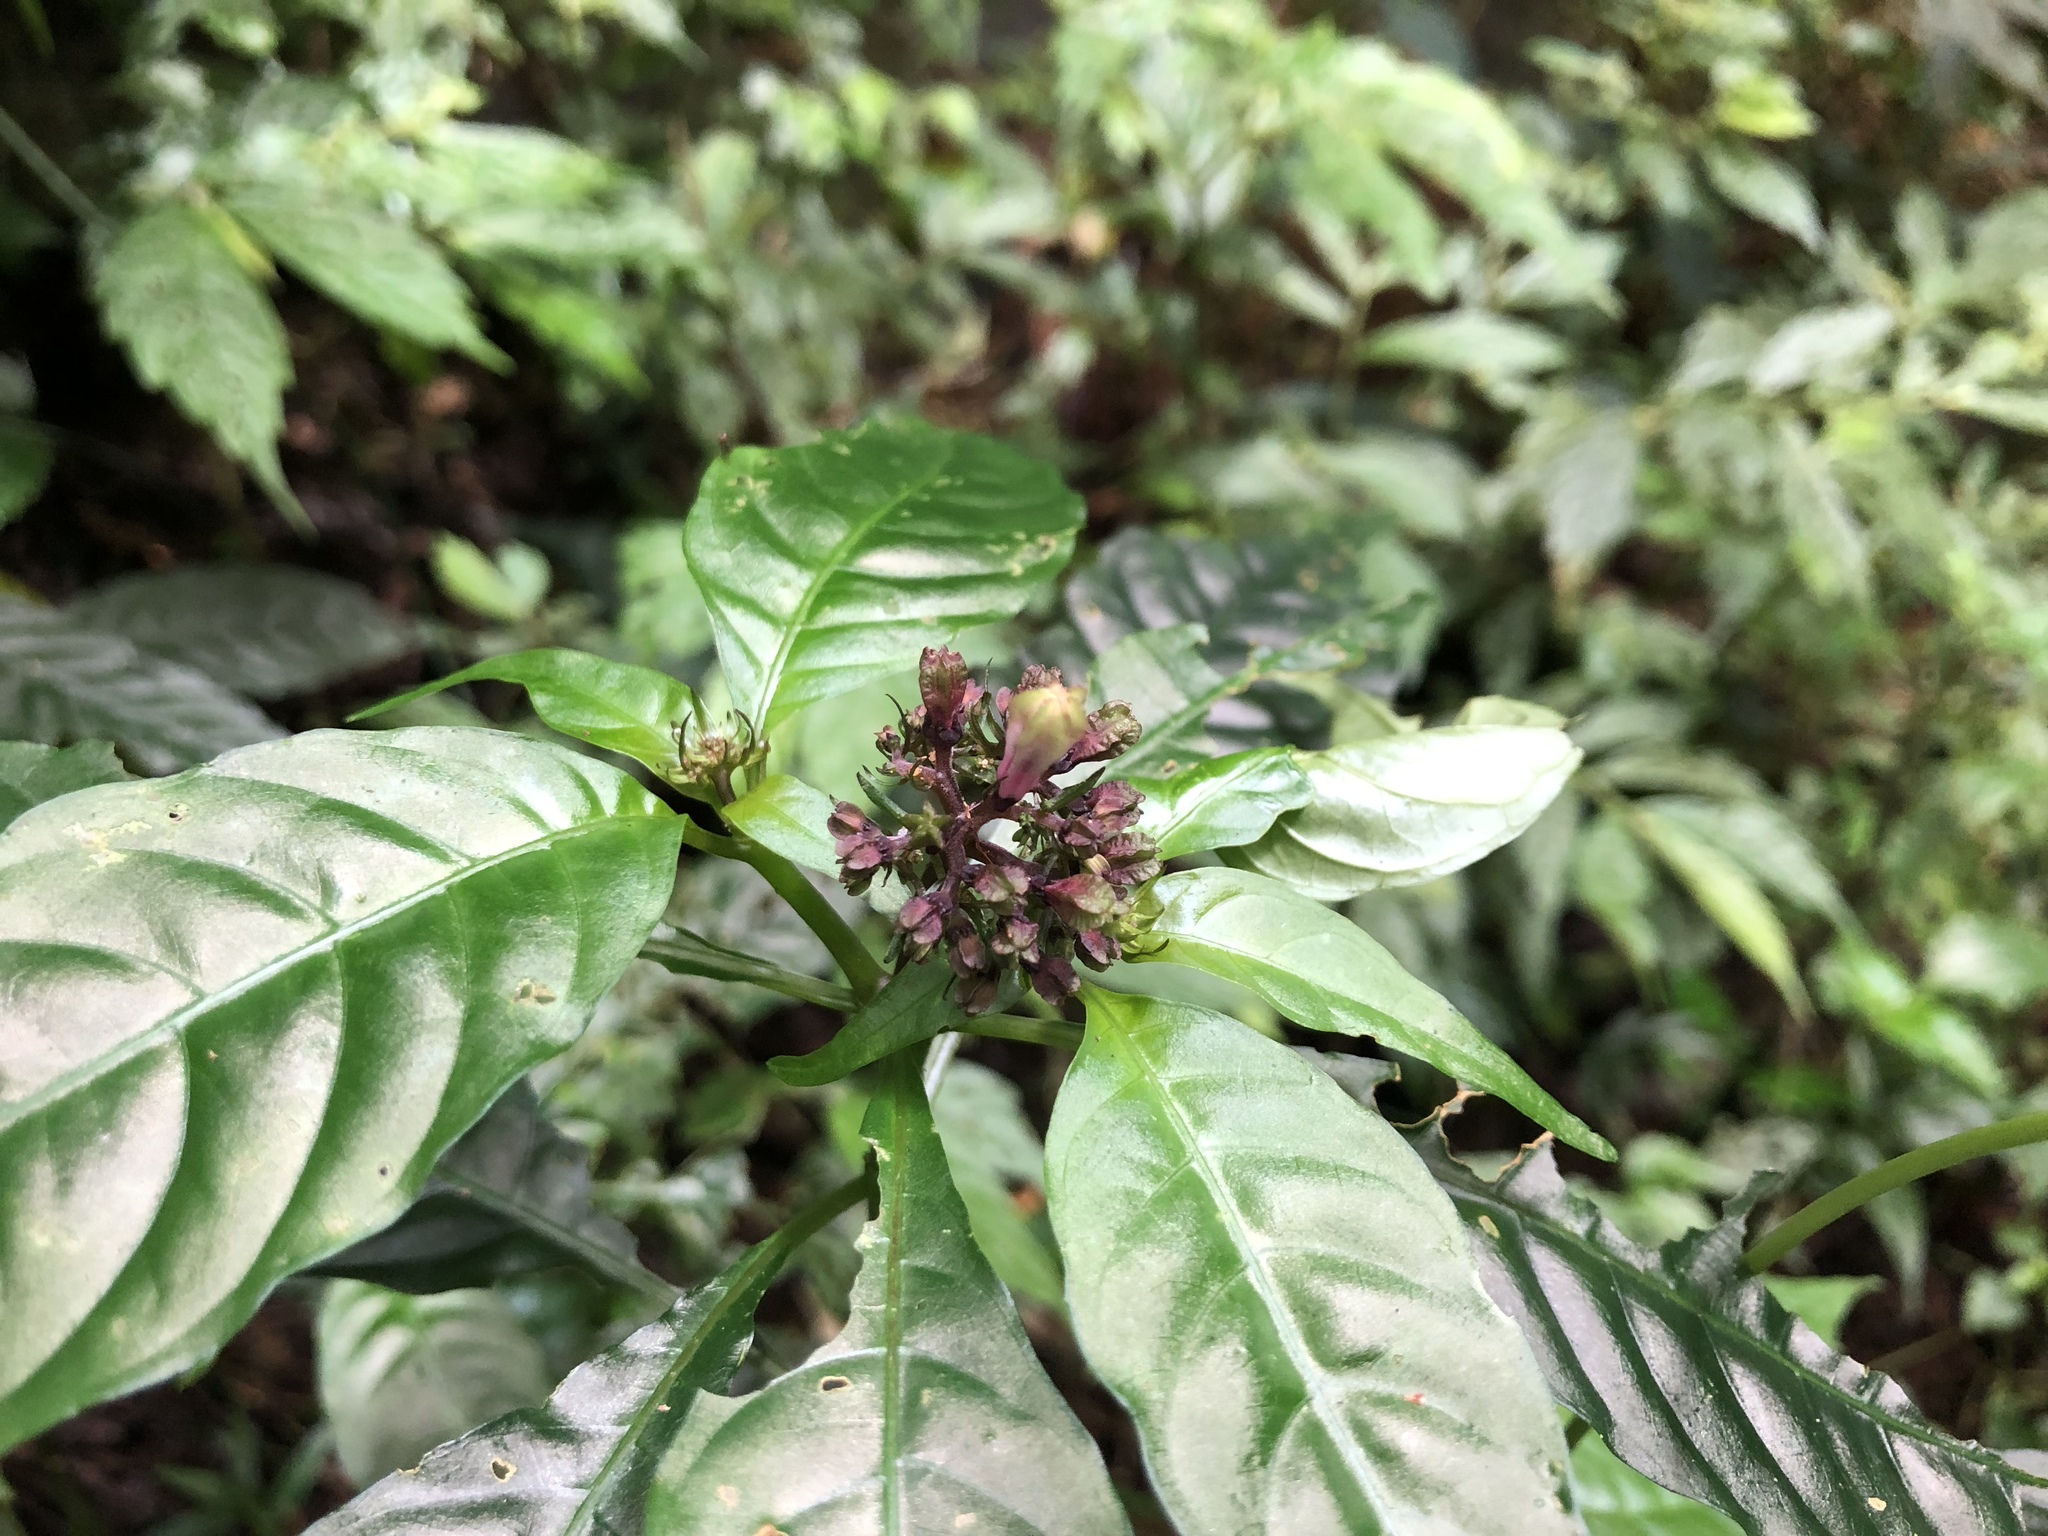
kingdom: Plantae
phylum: Tracheophyta
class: Magnoliopsida
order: Gentianales
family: Rubiaceae
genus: Ophiorrhiza
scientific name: Ophiorrhiza japonica
